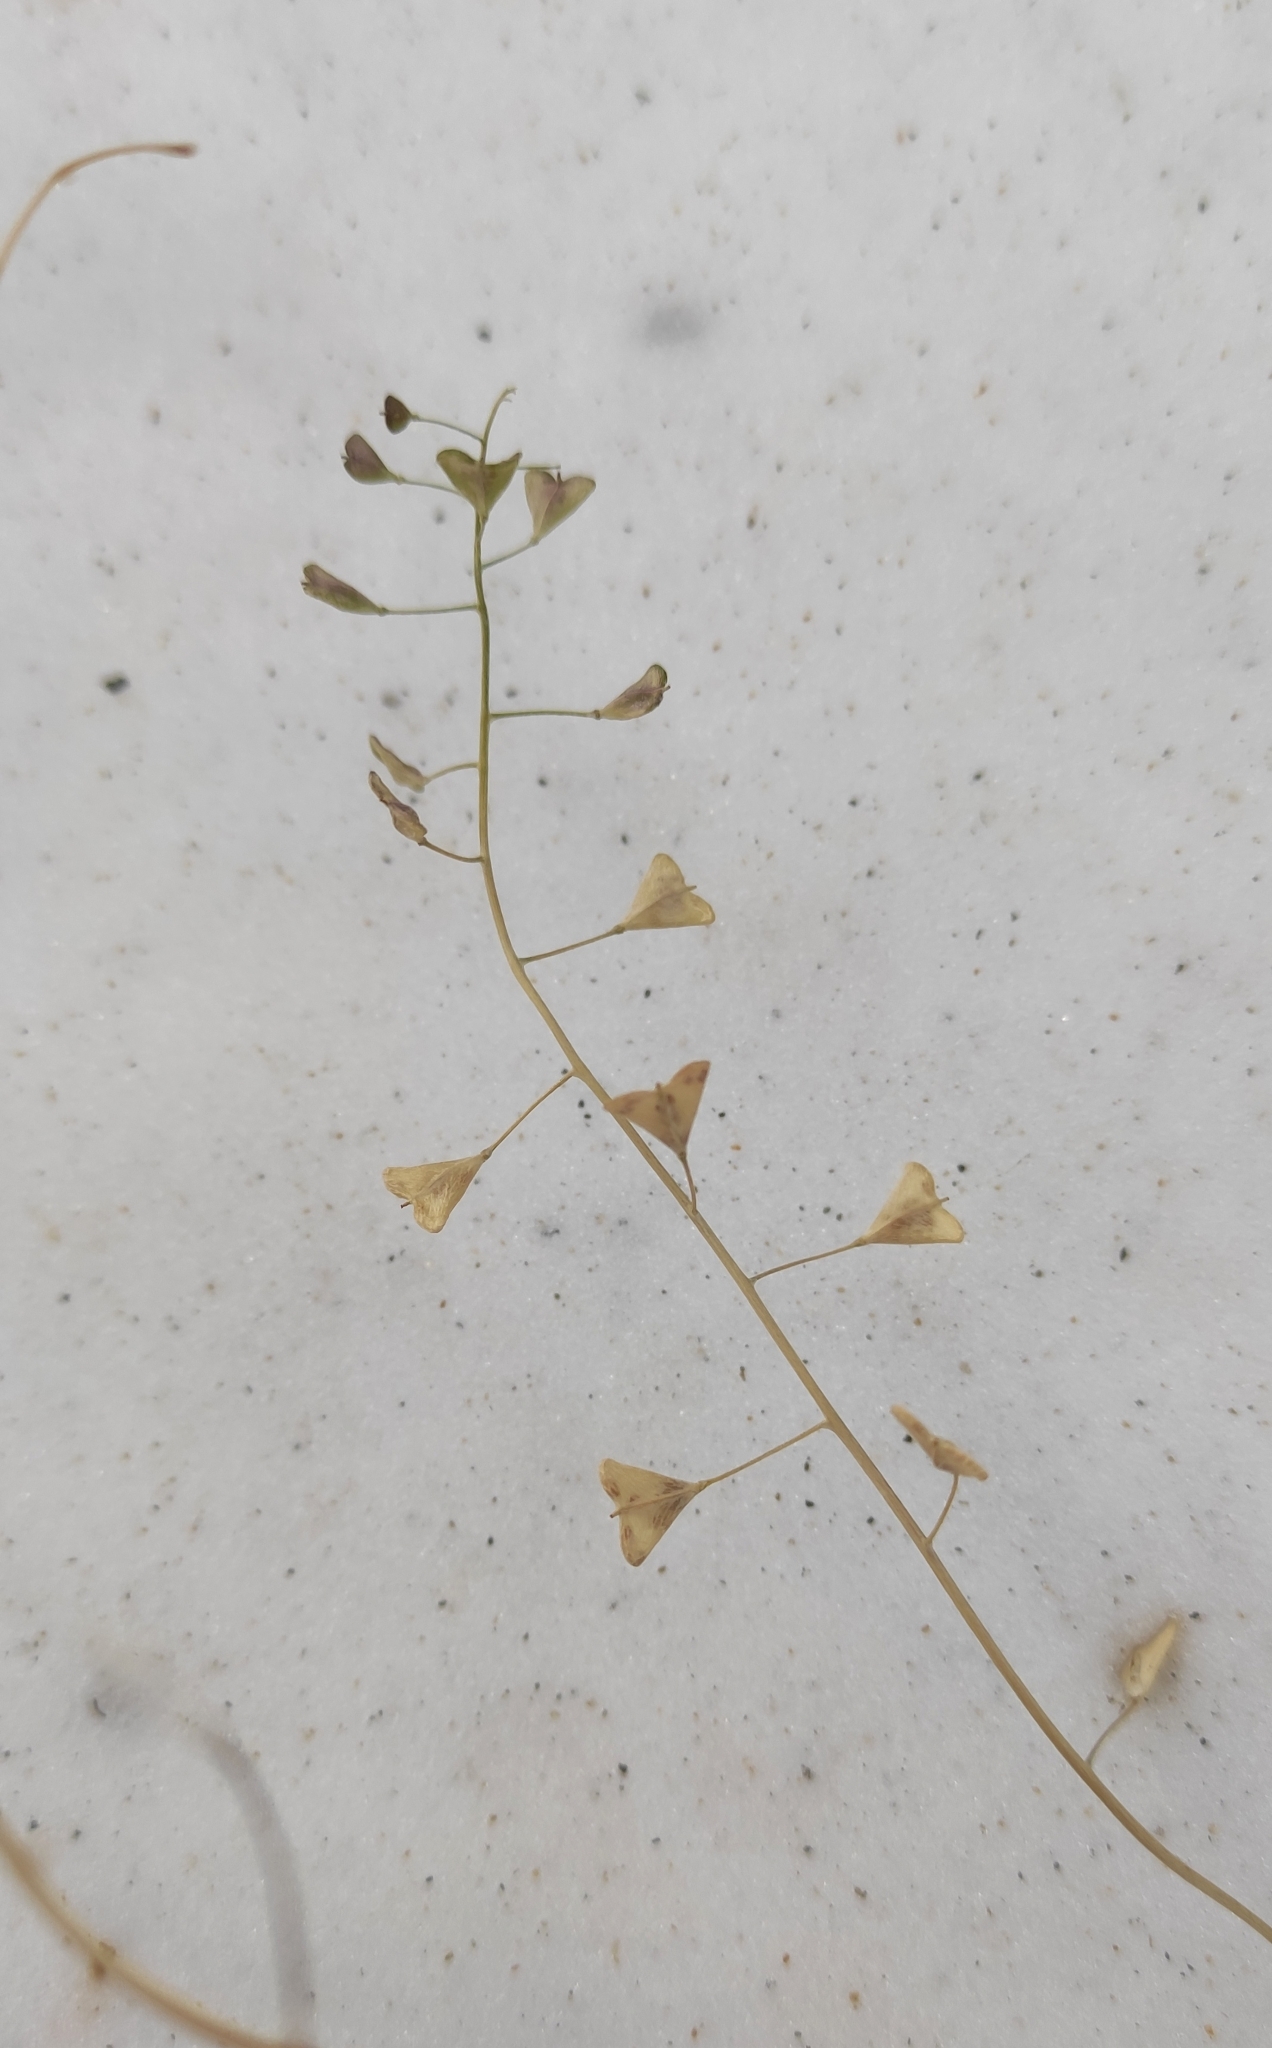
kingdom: Plantae
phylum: Tracheophyta
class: Magnoliopsida
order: Brassicales
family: Brassicaceae
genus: Capsella
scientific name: Capsella bursa-pastoris
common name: Shepherd's purse
